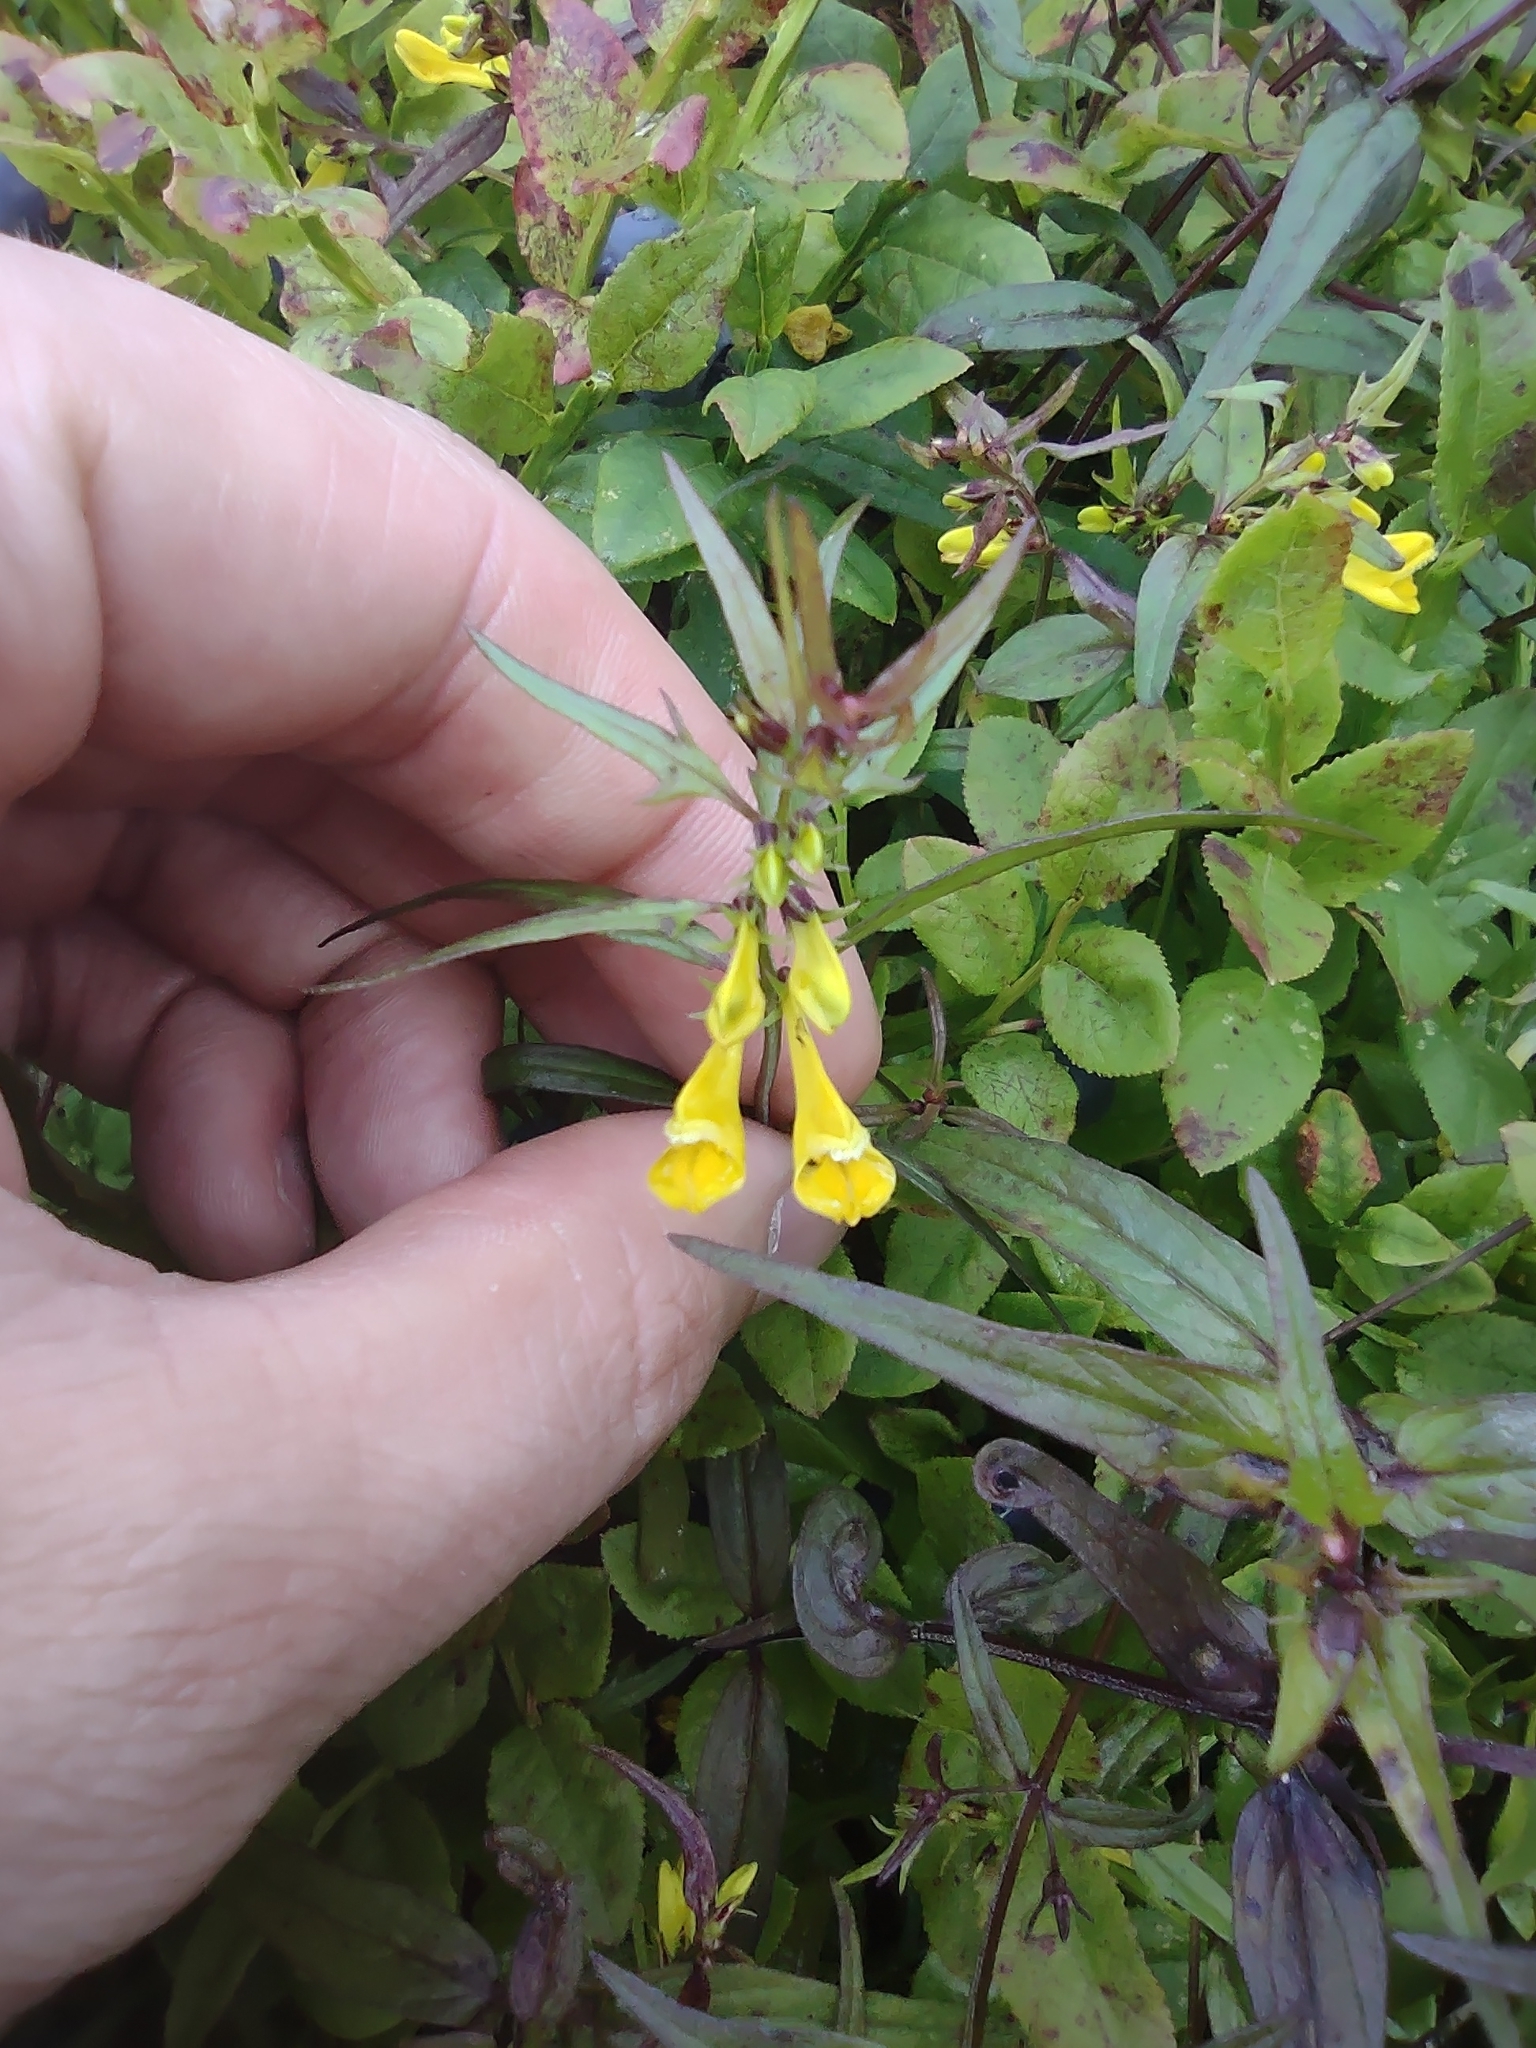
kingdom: Plantae
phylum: Tracheophyta
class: Magnoliopsida
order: Lamiales
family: Orobanchaceae
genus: Melampyrum
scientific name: Melampyrum pratense
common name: Common cow-wheat
